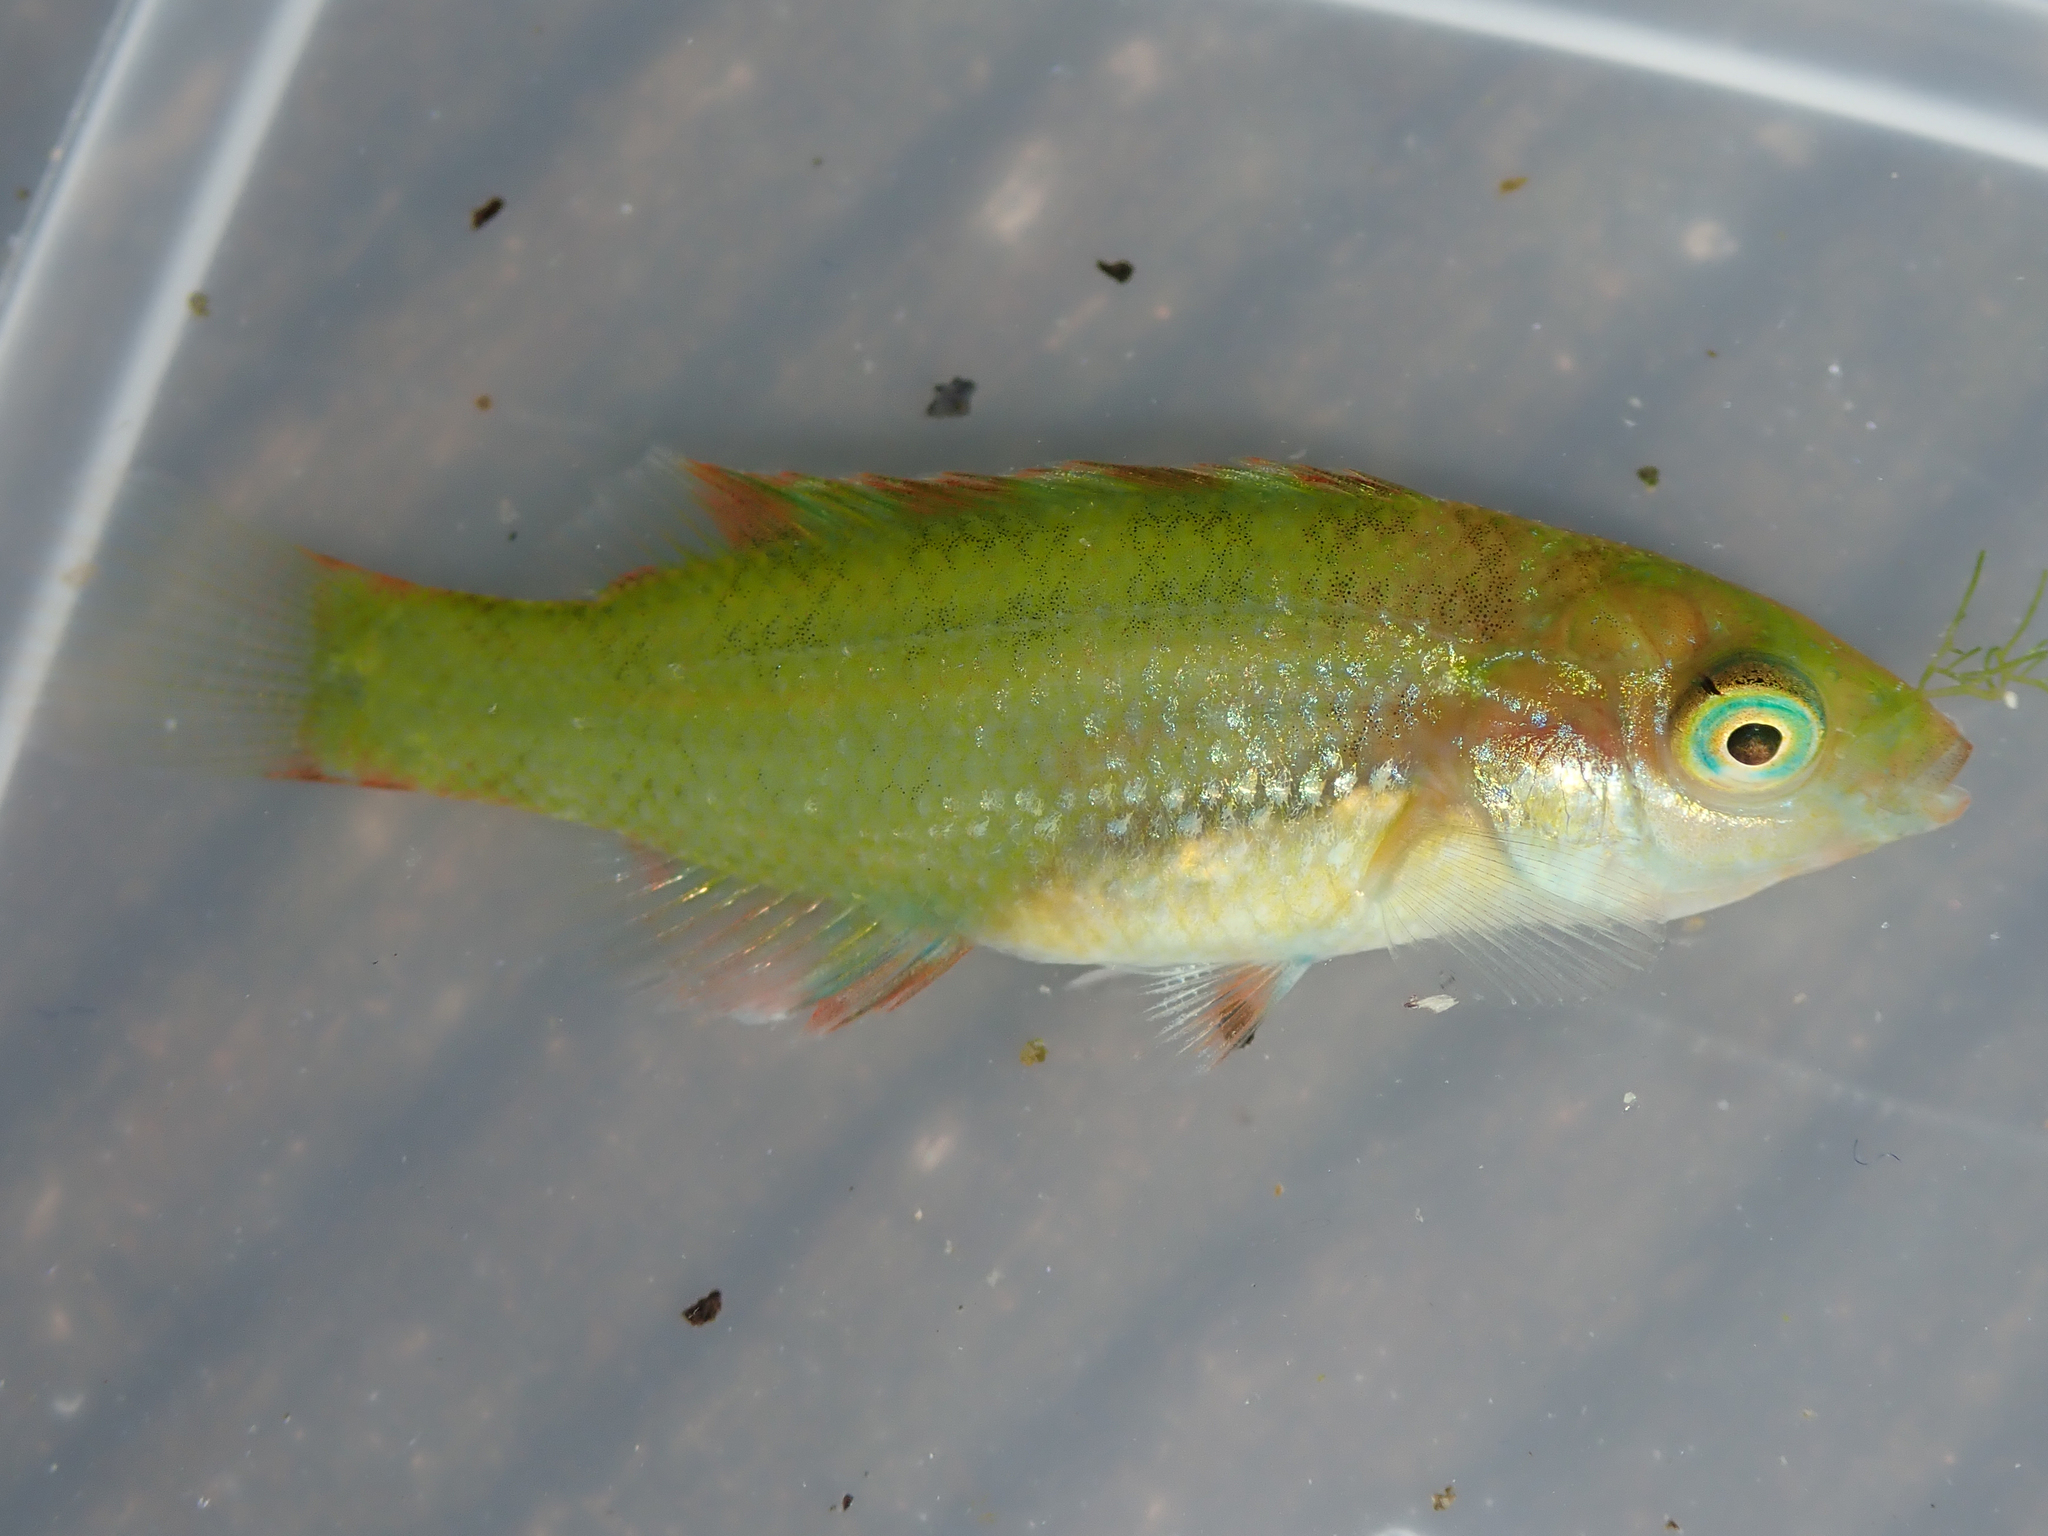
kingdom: Animalia
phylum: Chordata
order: Perciformes
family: Labridae
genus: Symphodus
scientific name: Symphodus melops
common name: Corkwing
